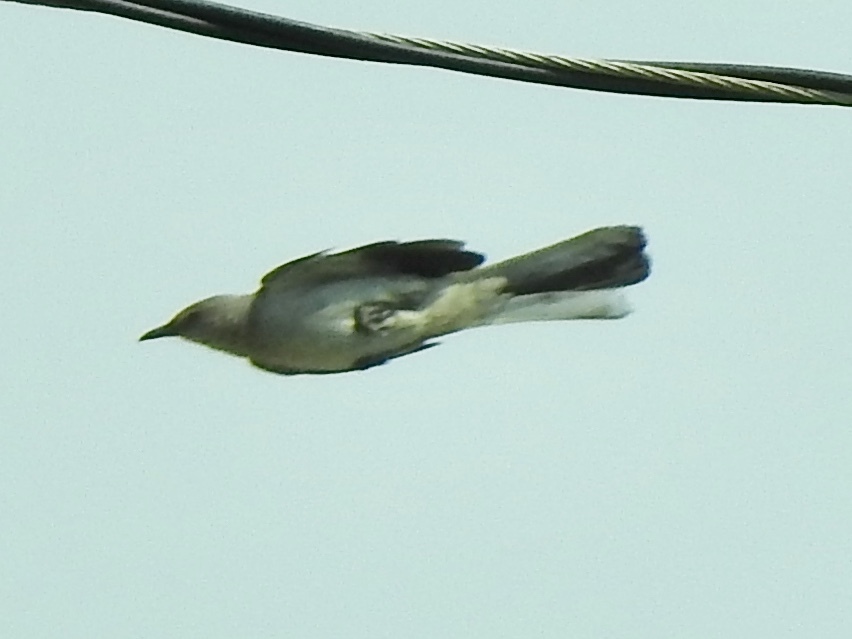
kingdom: Animalia
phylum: Chordata
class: Aves
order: Passeriformes
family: Mimidae
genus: Mimus
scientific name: Mimus polyglottos
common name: Northern mockingbird
